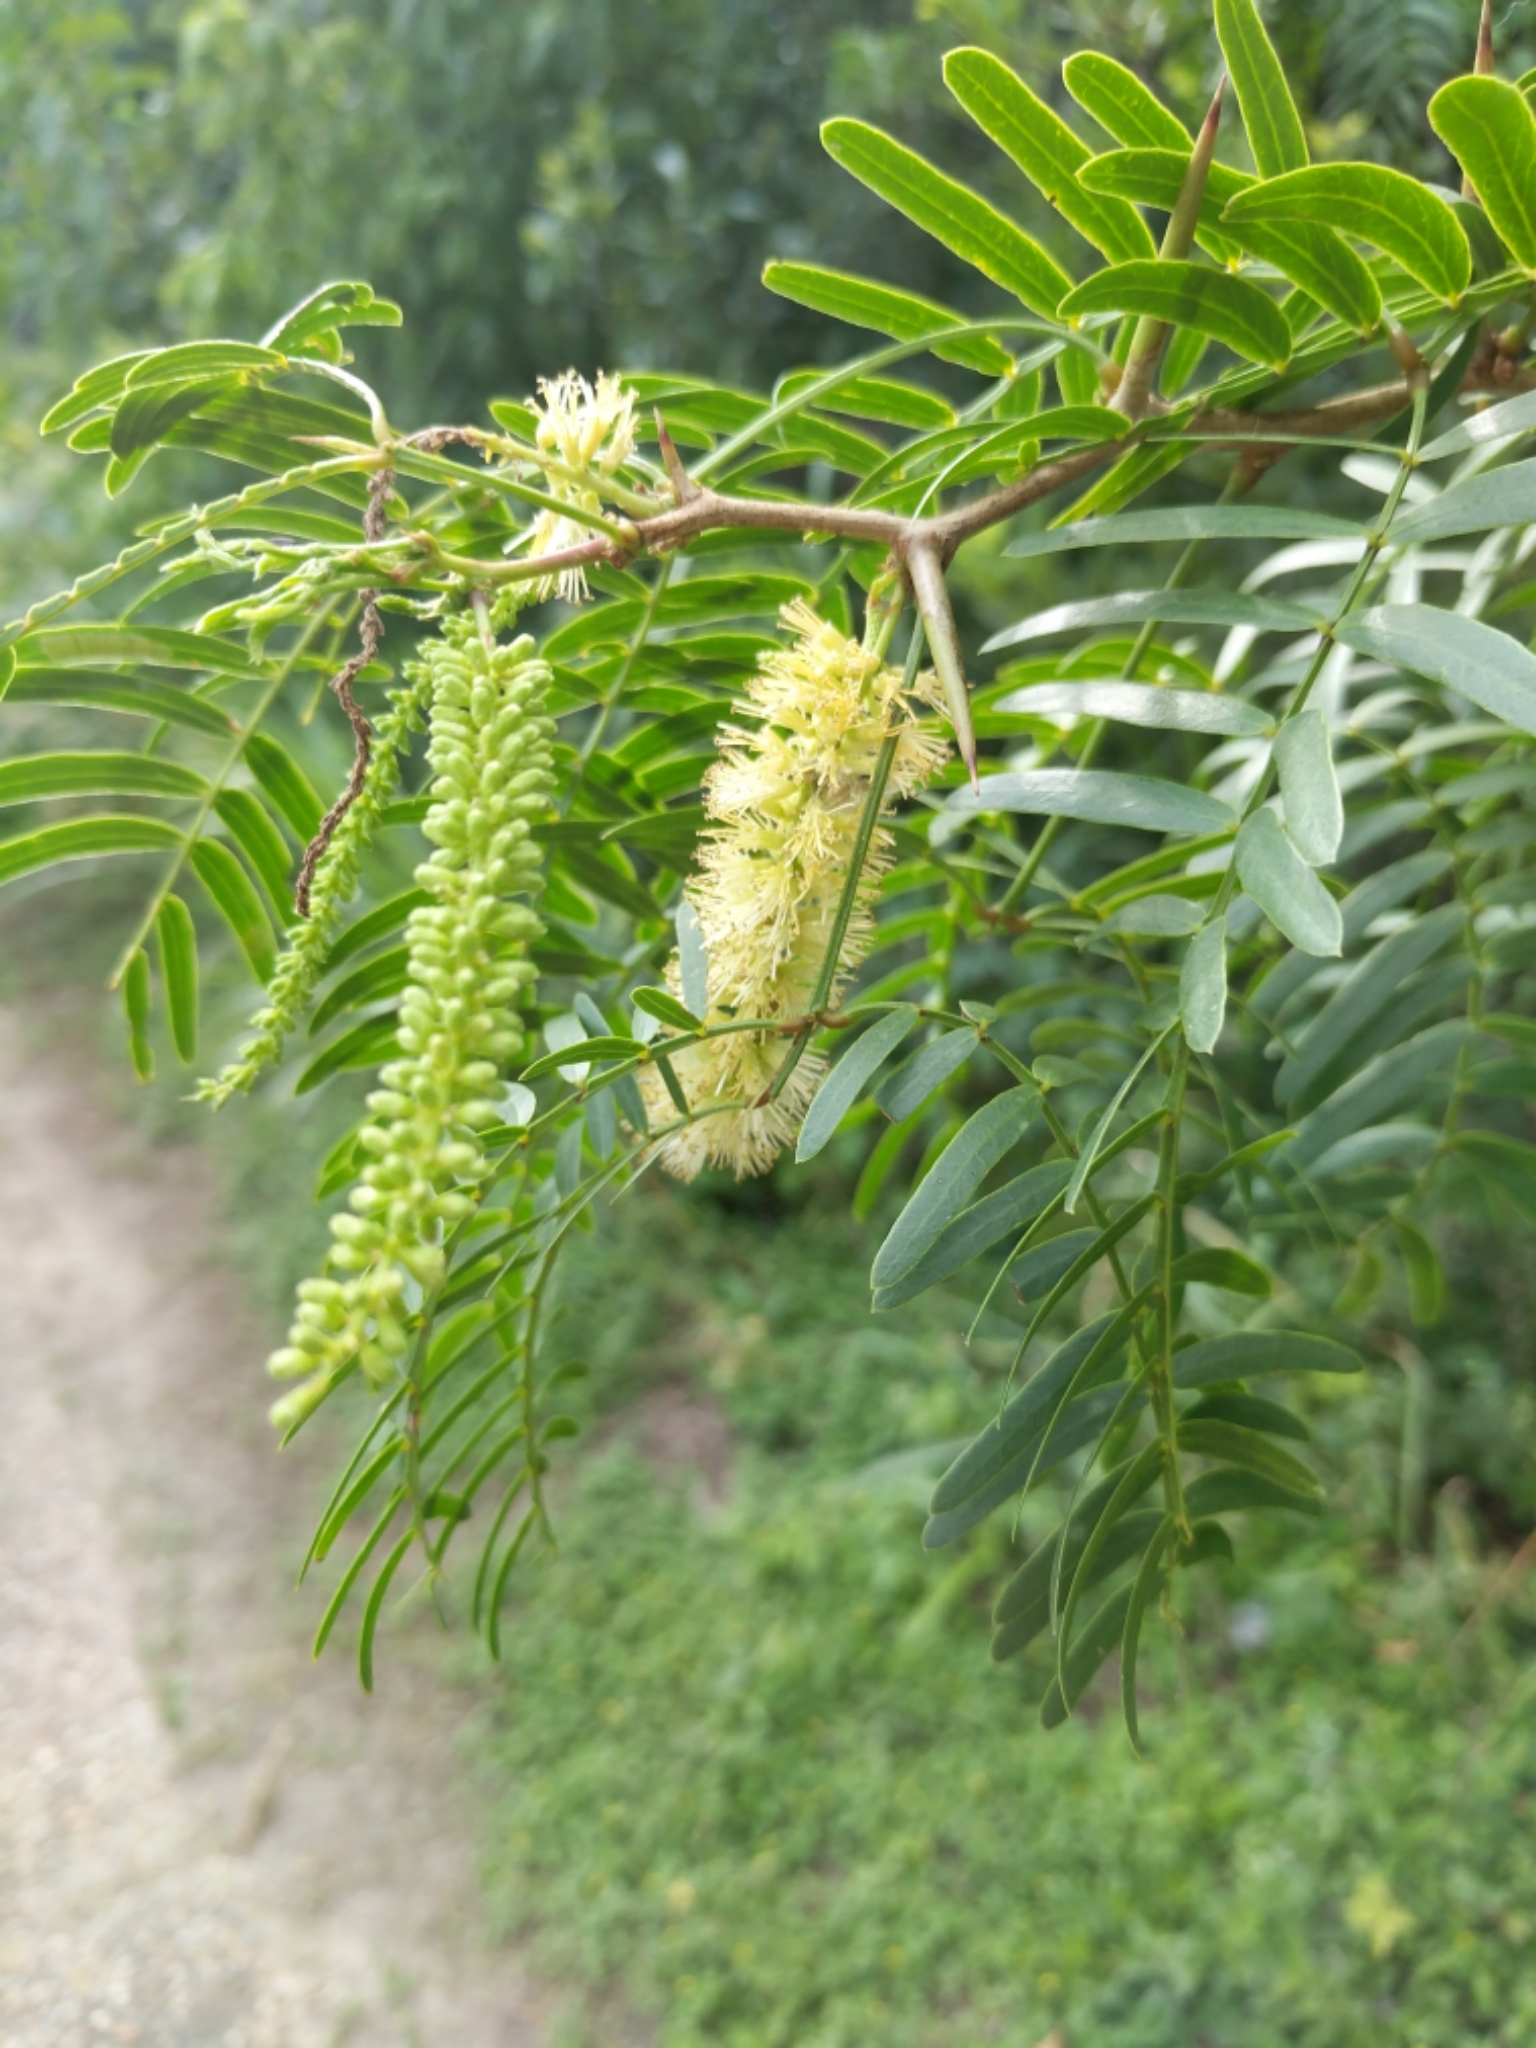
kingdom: Plantae
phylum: Tracheophyta
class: Magnoliopsida
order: Fabales
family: Fabaceae
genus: Prosopis
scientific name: Prosopis glandulosa
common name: Honey mesquite
